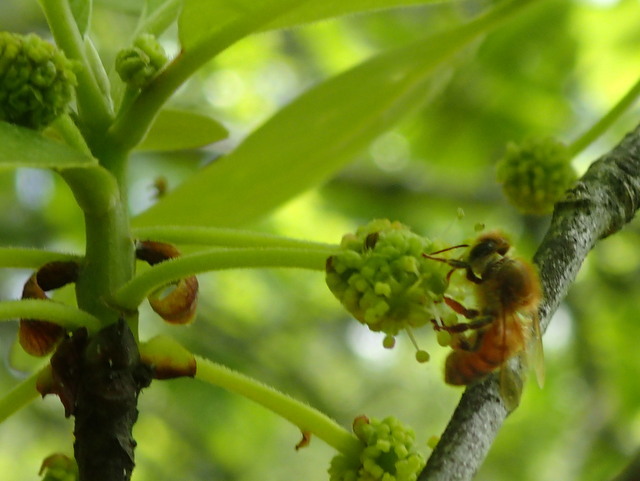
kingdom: Animalia
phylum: Arthropoda
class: Insecta
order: Hymenoptera
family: Apidae
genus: Apis
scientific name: Apis mellifera
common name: Honey bee
